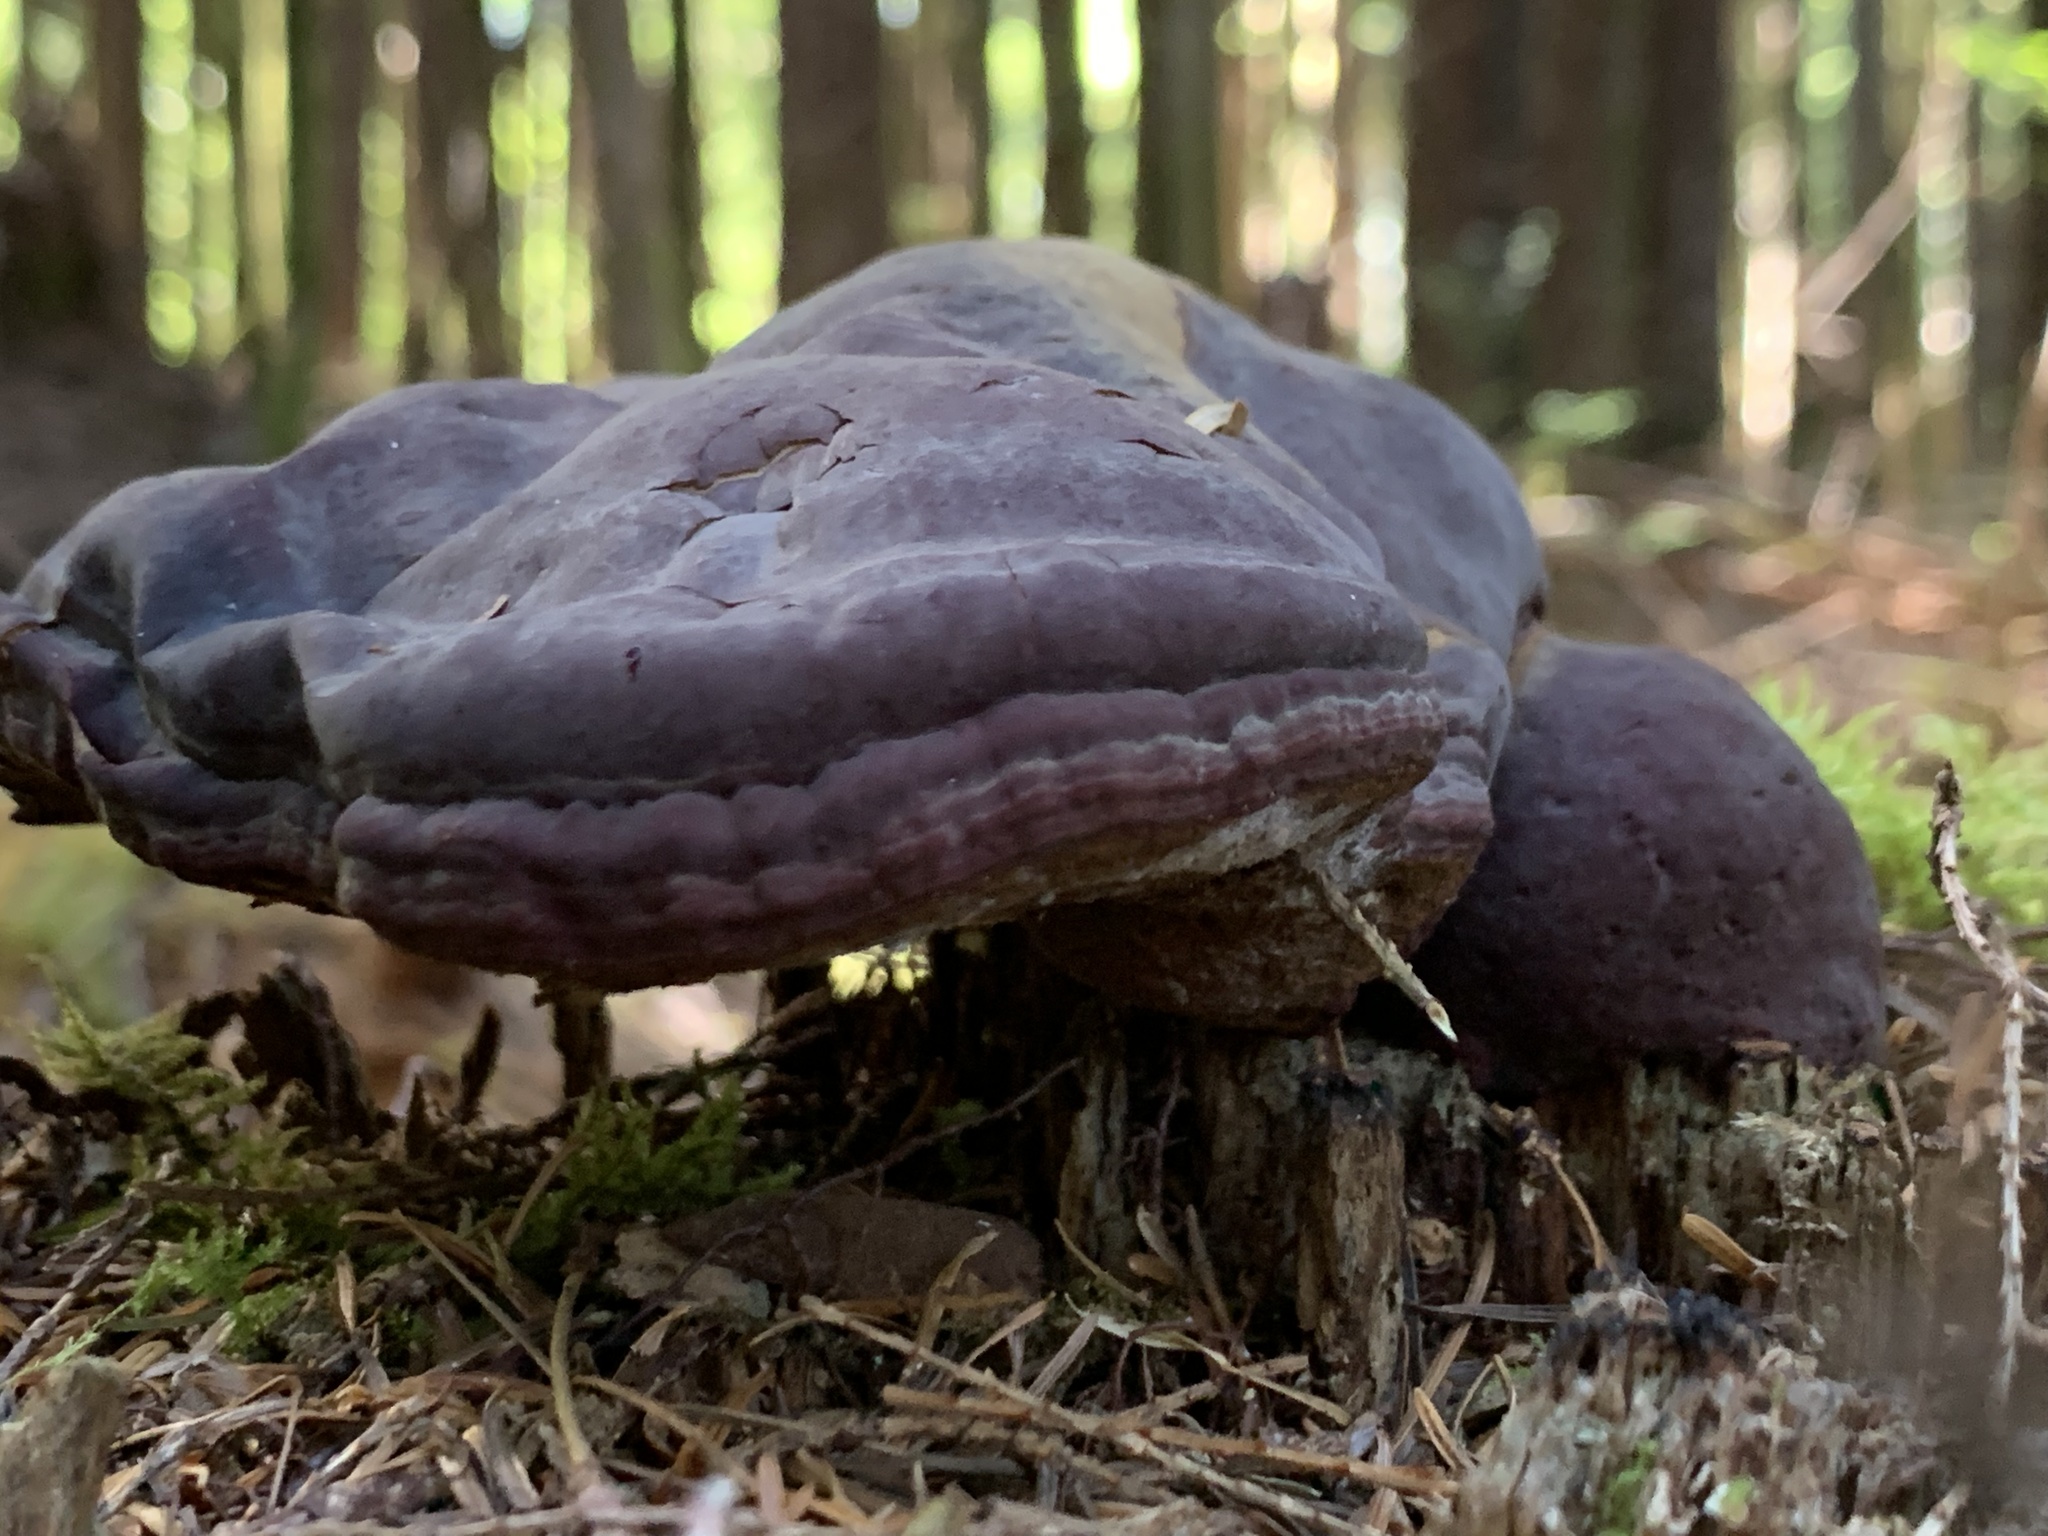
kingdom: Fungi
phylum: Basidiomycota
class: Agaricomycetes
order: Polyporales
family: Polyporaceae
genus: Ganoderma
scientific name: Ganoderma oregonense
